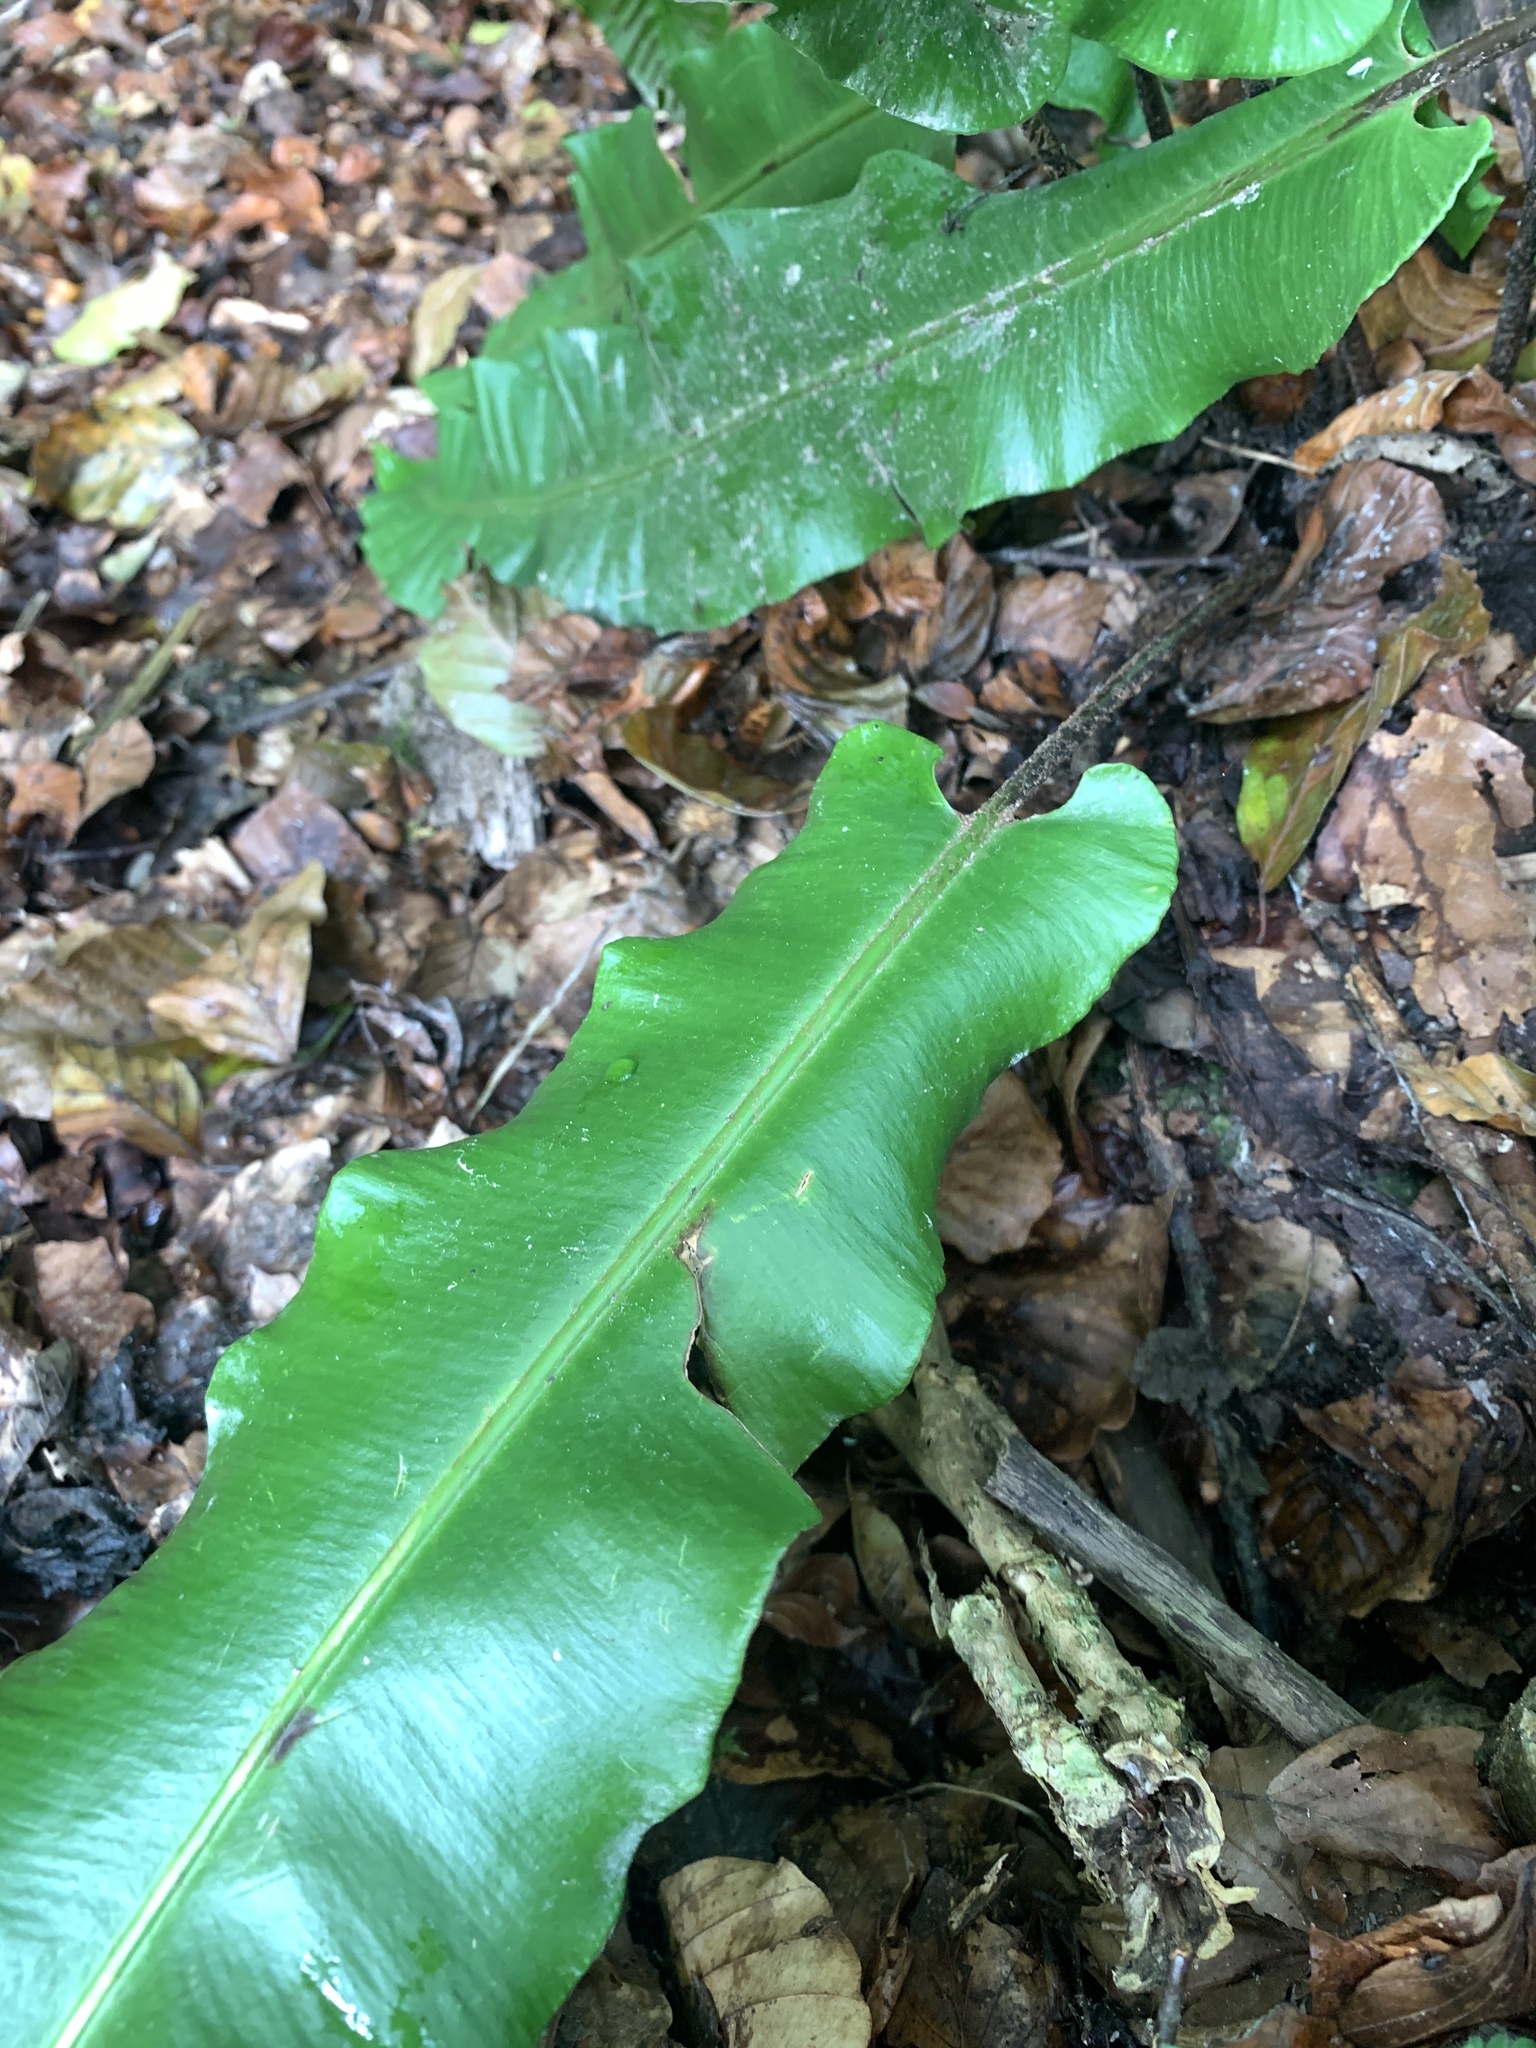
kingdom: Plantae
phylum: Tracheophyta
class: Polypodiopsida
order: Polypodiales
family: Aspleniaceae
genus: Asplenium
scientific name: Asplenium scolopendrium
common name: Hart's-tongue fern
